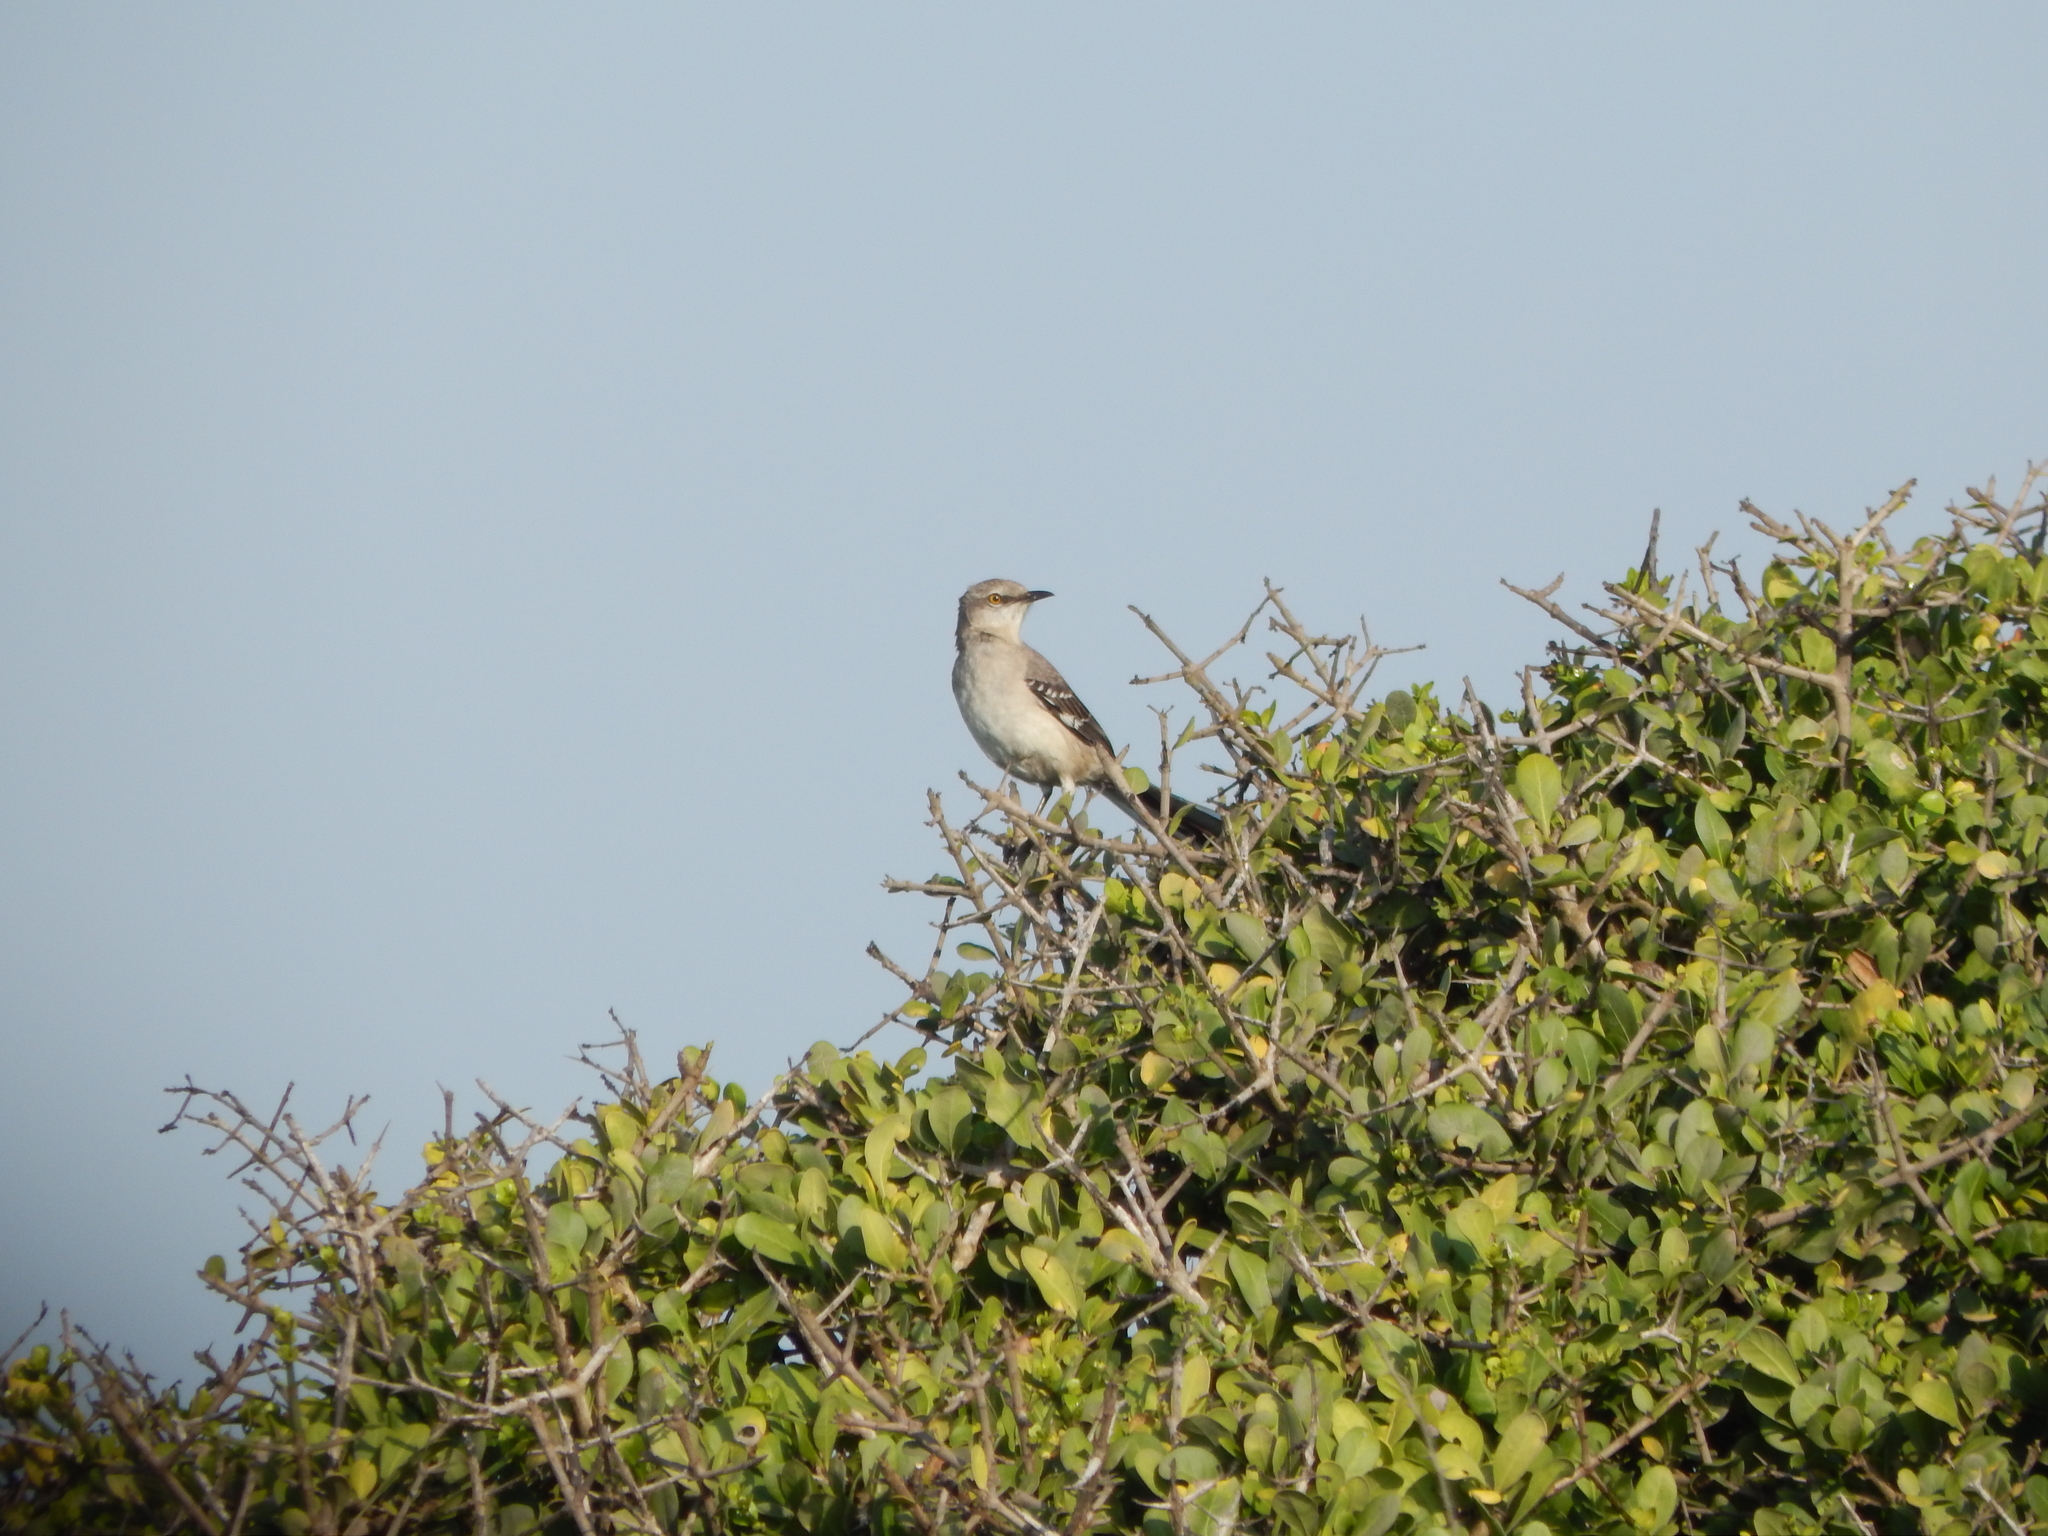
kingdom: Animalia
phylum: Chordata
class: Aves
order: Passeriformes
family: Mimidae
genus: Mimus
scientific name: Mimus polyglottos
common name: Northern mockingbird
